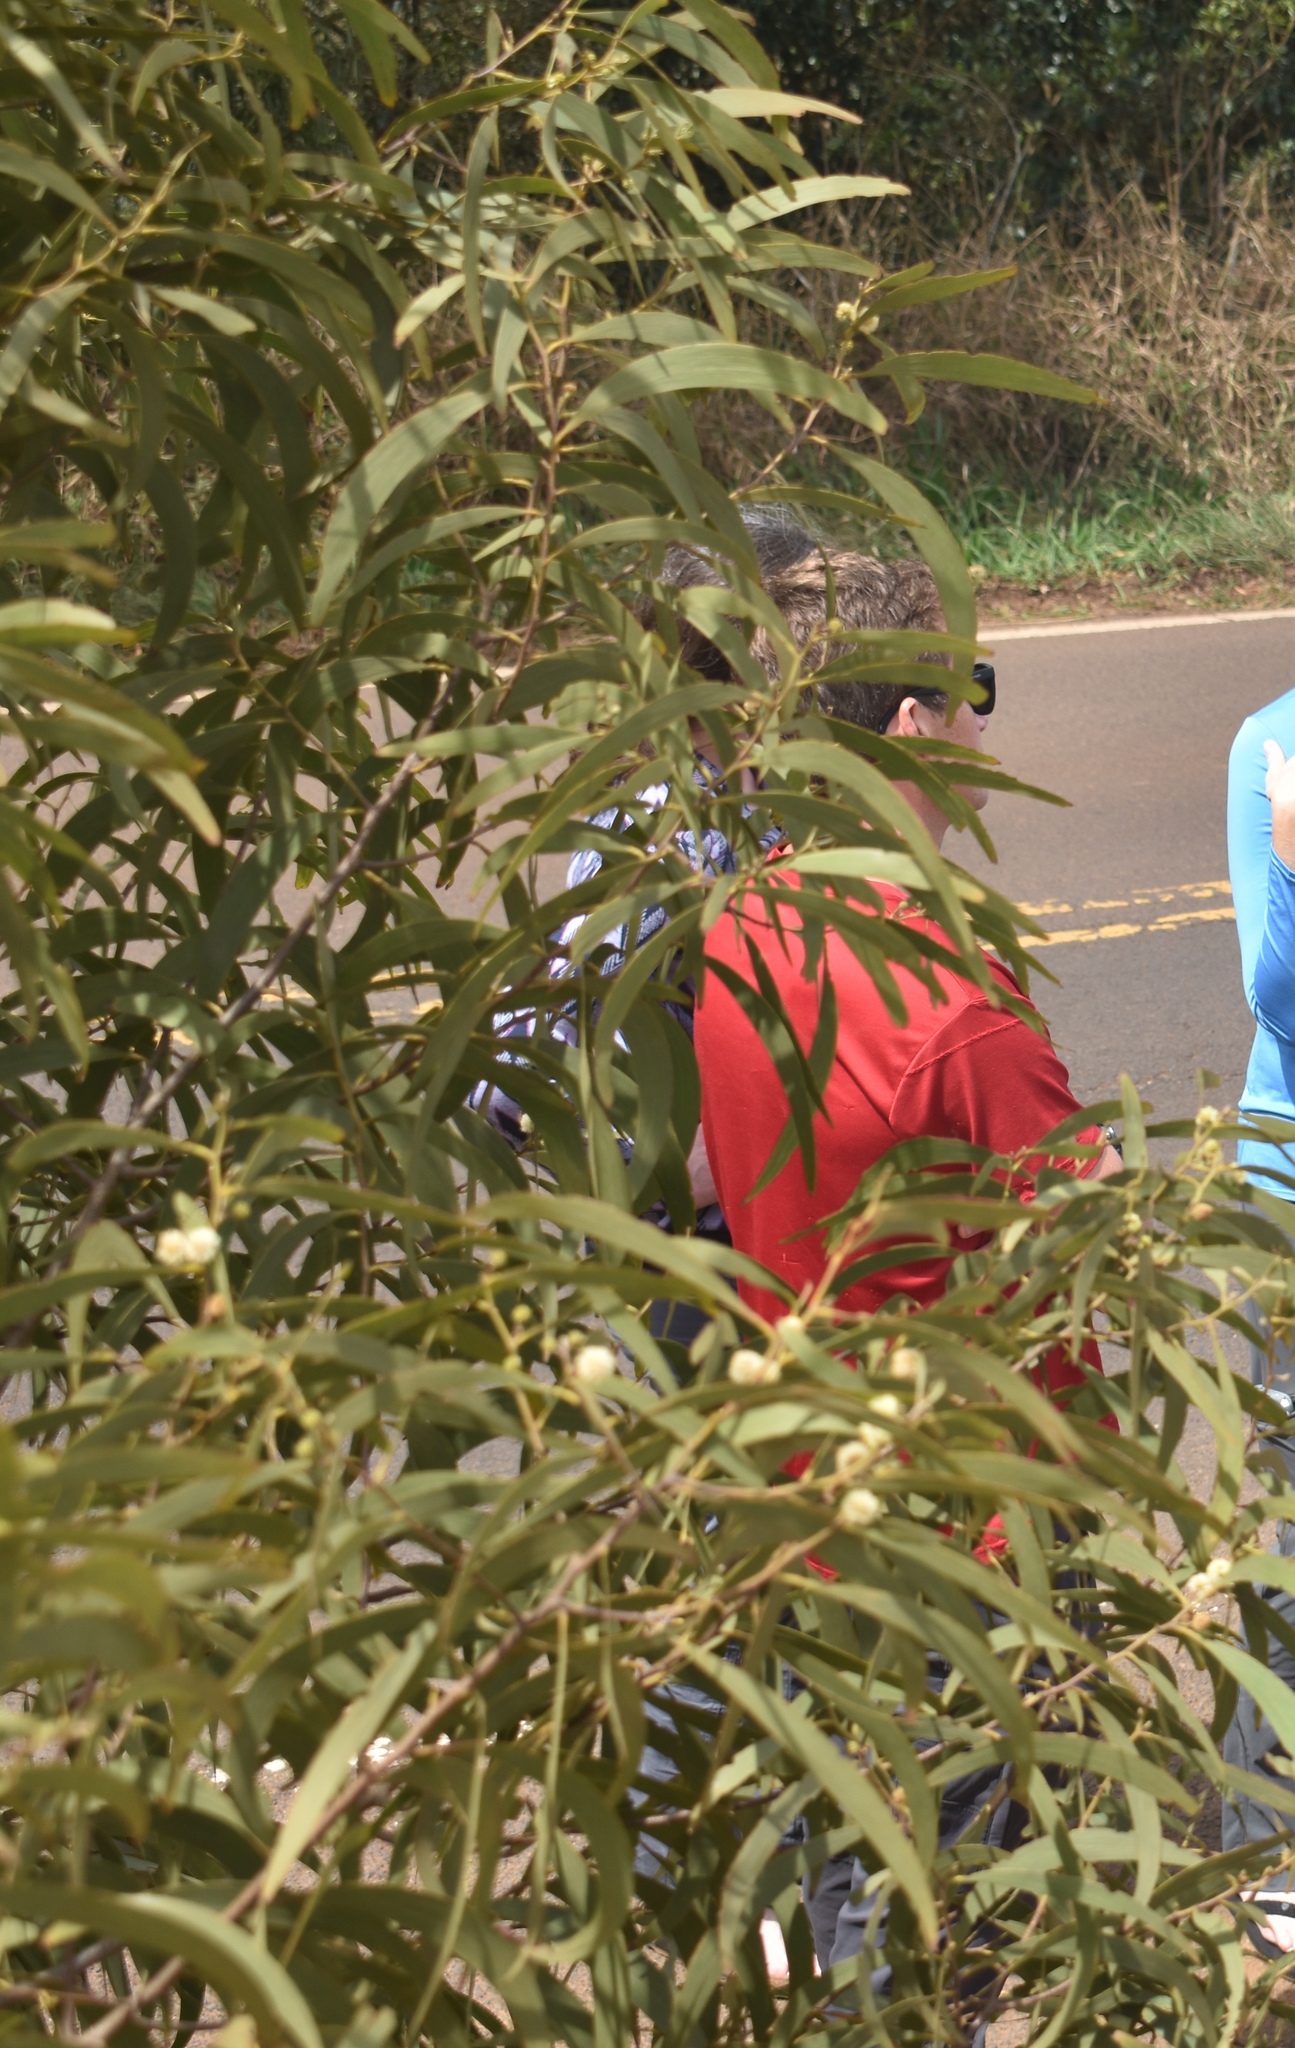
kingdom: Plantae
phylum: Tracheophyta
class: Magnoliopsida
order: Fabales
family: Fabaceae
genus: Acacia
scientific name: Acacia koa
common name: Gray koa
